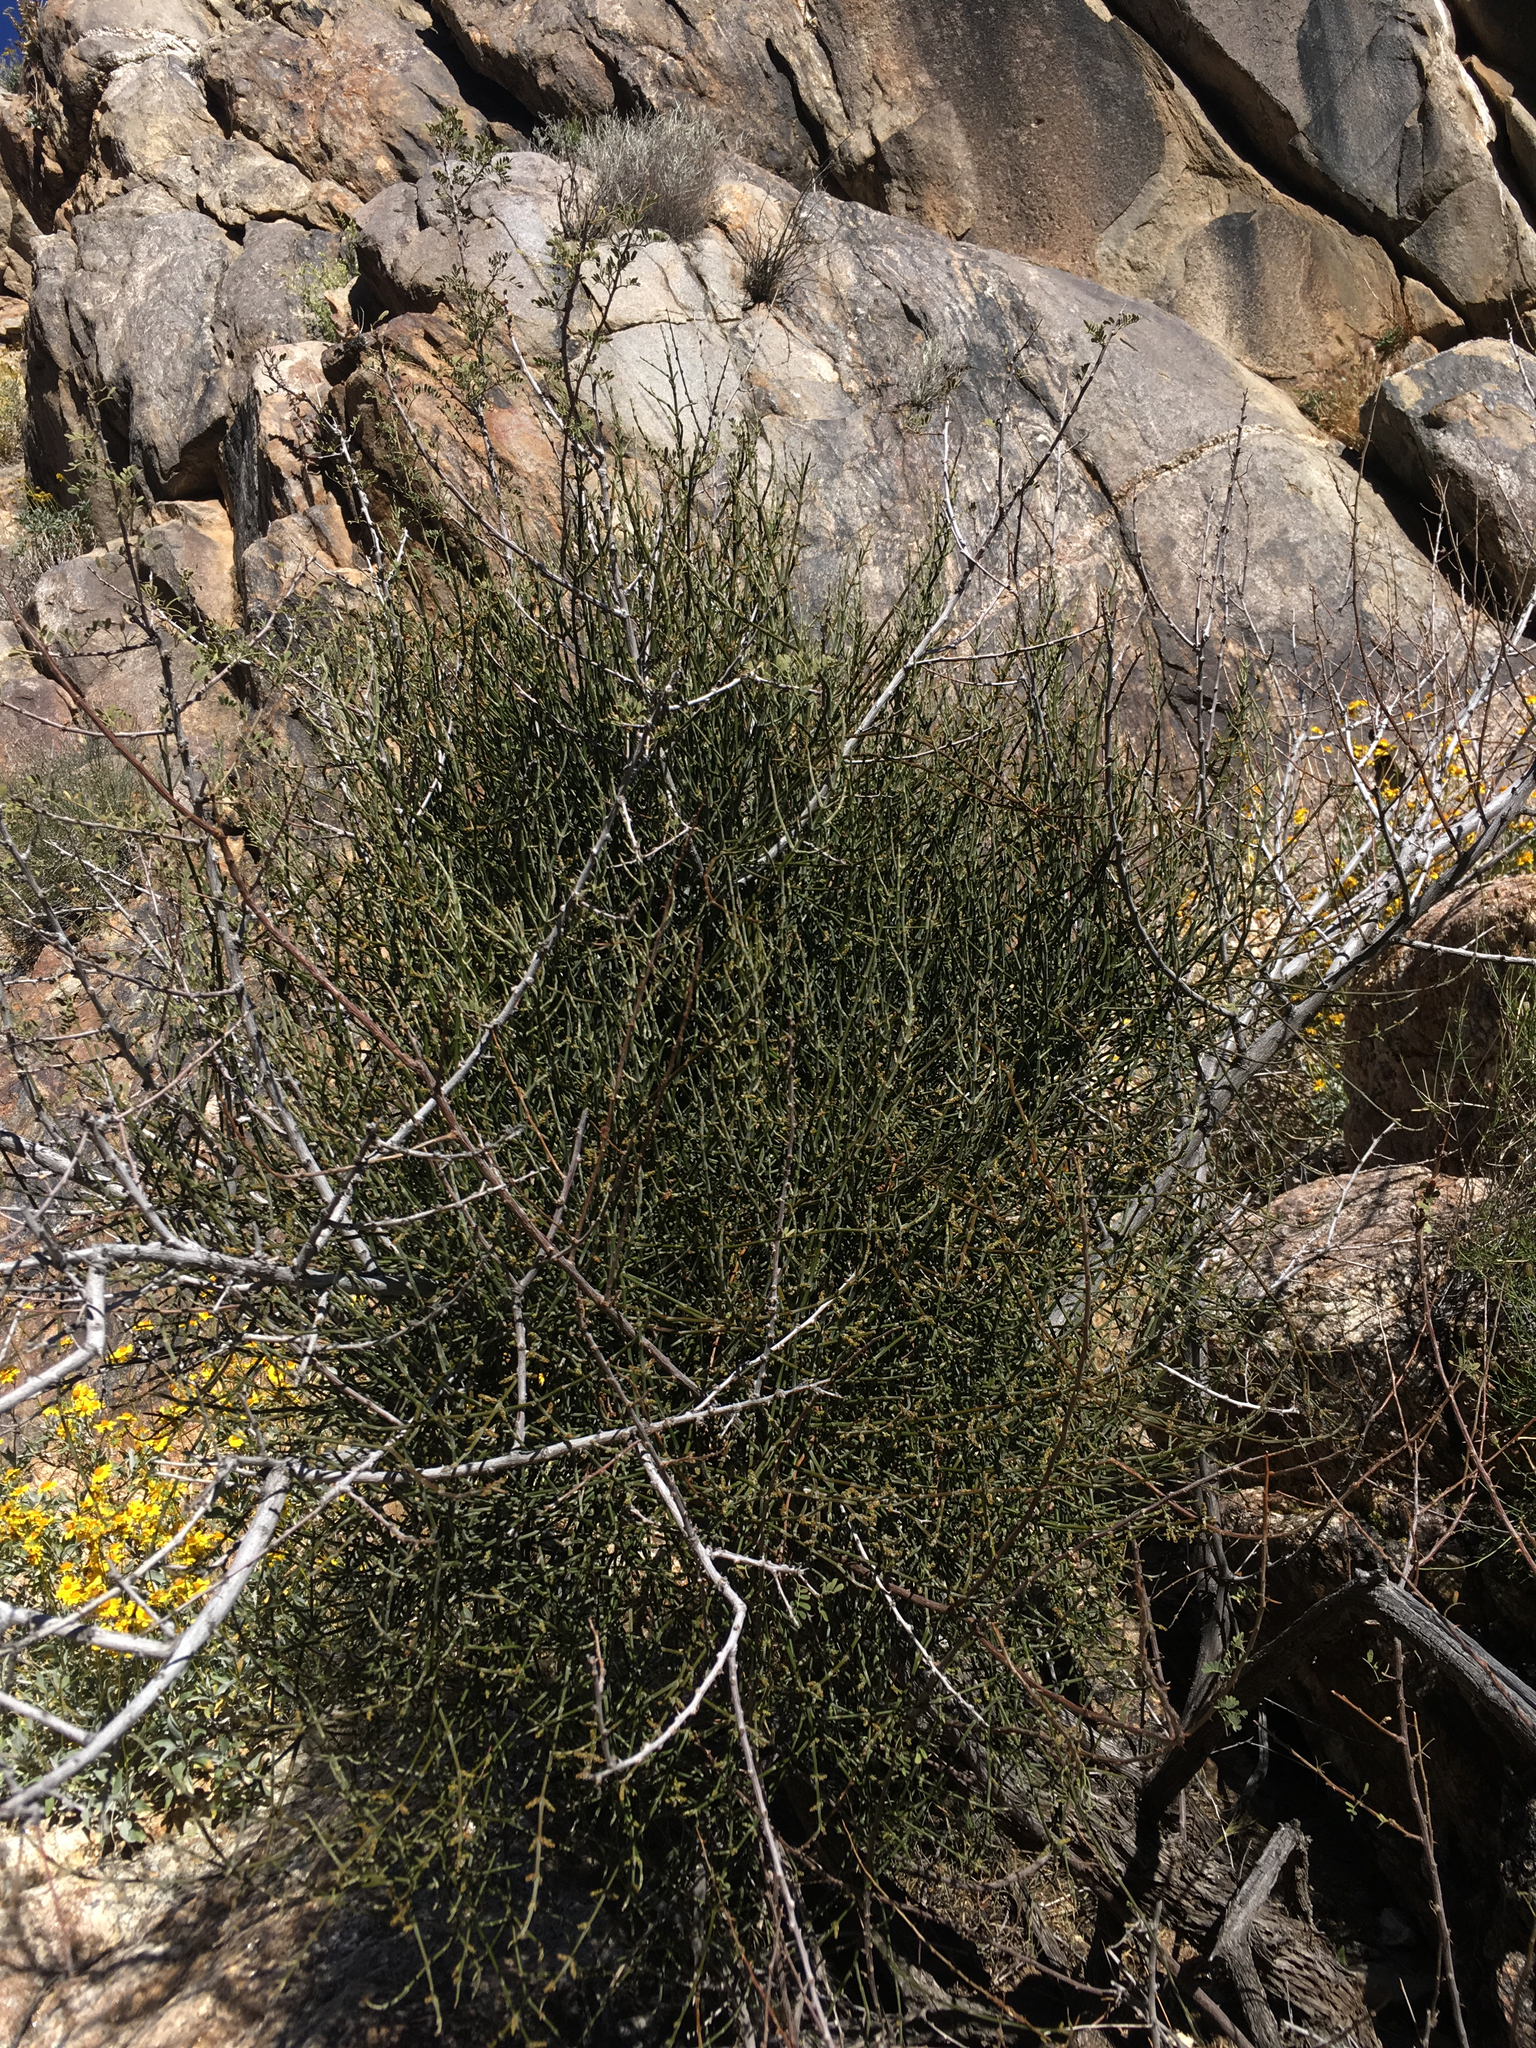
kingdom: Plantae
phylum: Tracheophyta
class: Magnoliopsida
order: Santalales
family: Viscaceae
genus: Phoradendron
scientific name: Phoradendron californicum
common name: Acacia mistletoe
